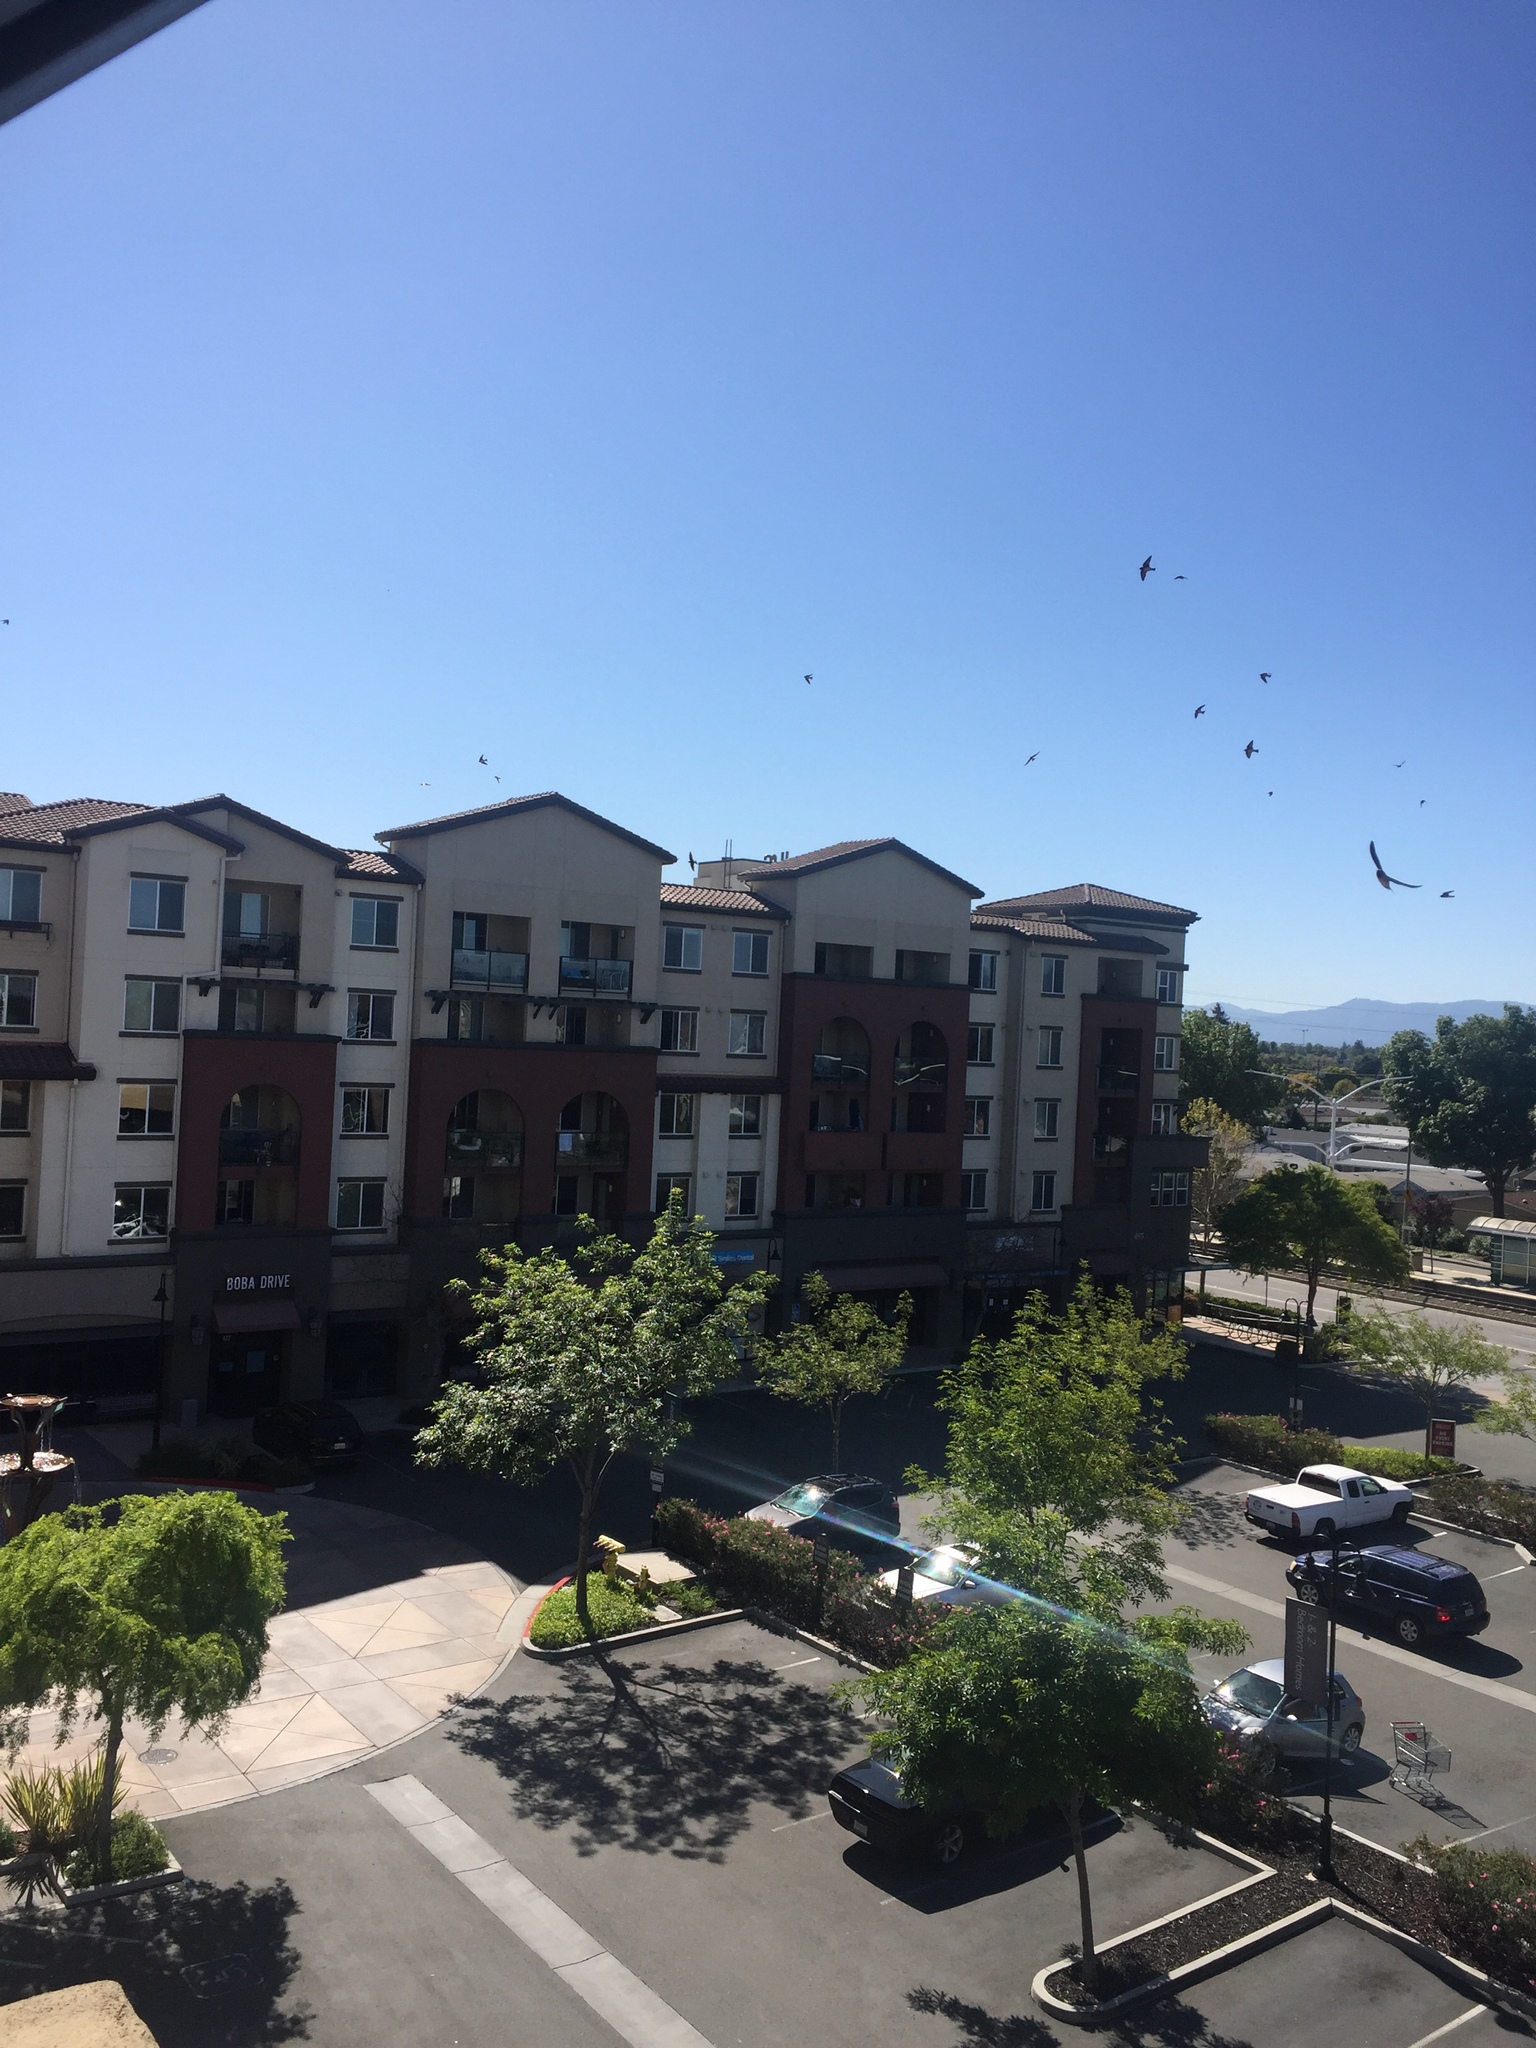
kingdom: Animalia
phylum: Chordata
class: Aves
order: Passeriformes
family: Hirundinidae
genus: Petrochelidon
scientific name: Petrochelidon pyrrhonota
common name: American cliff swallow
